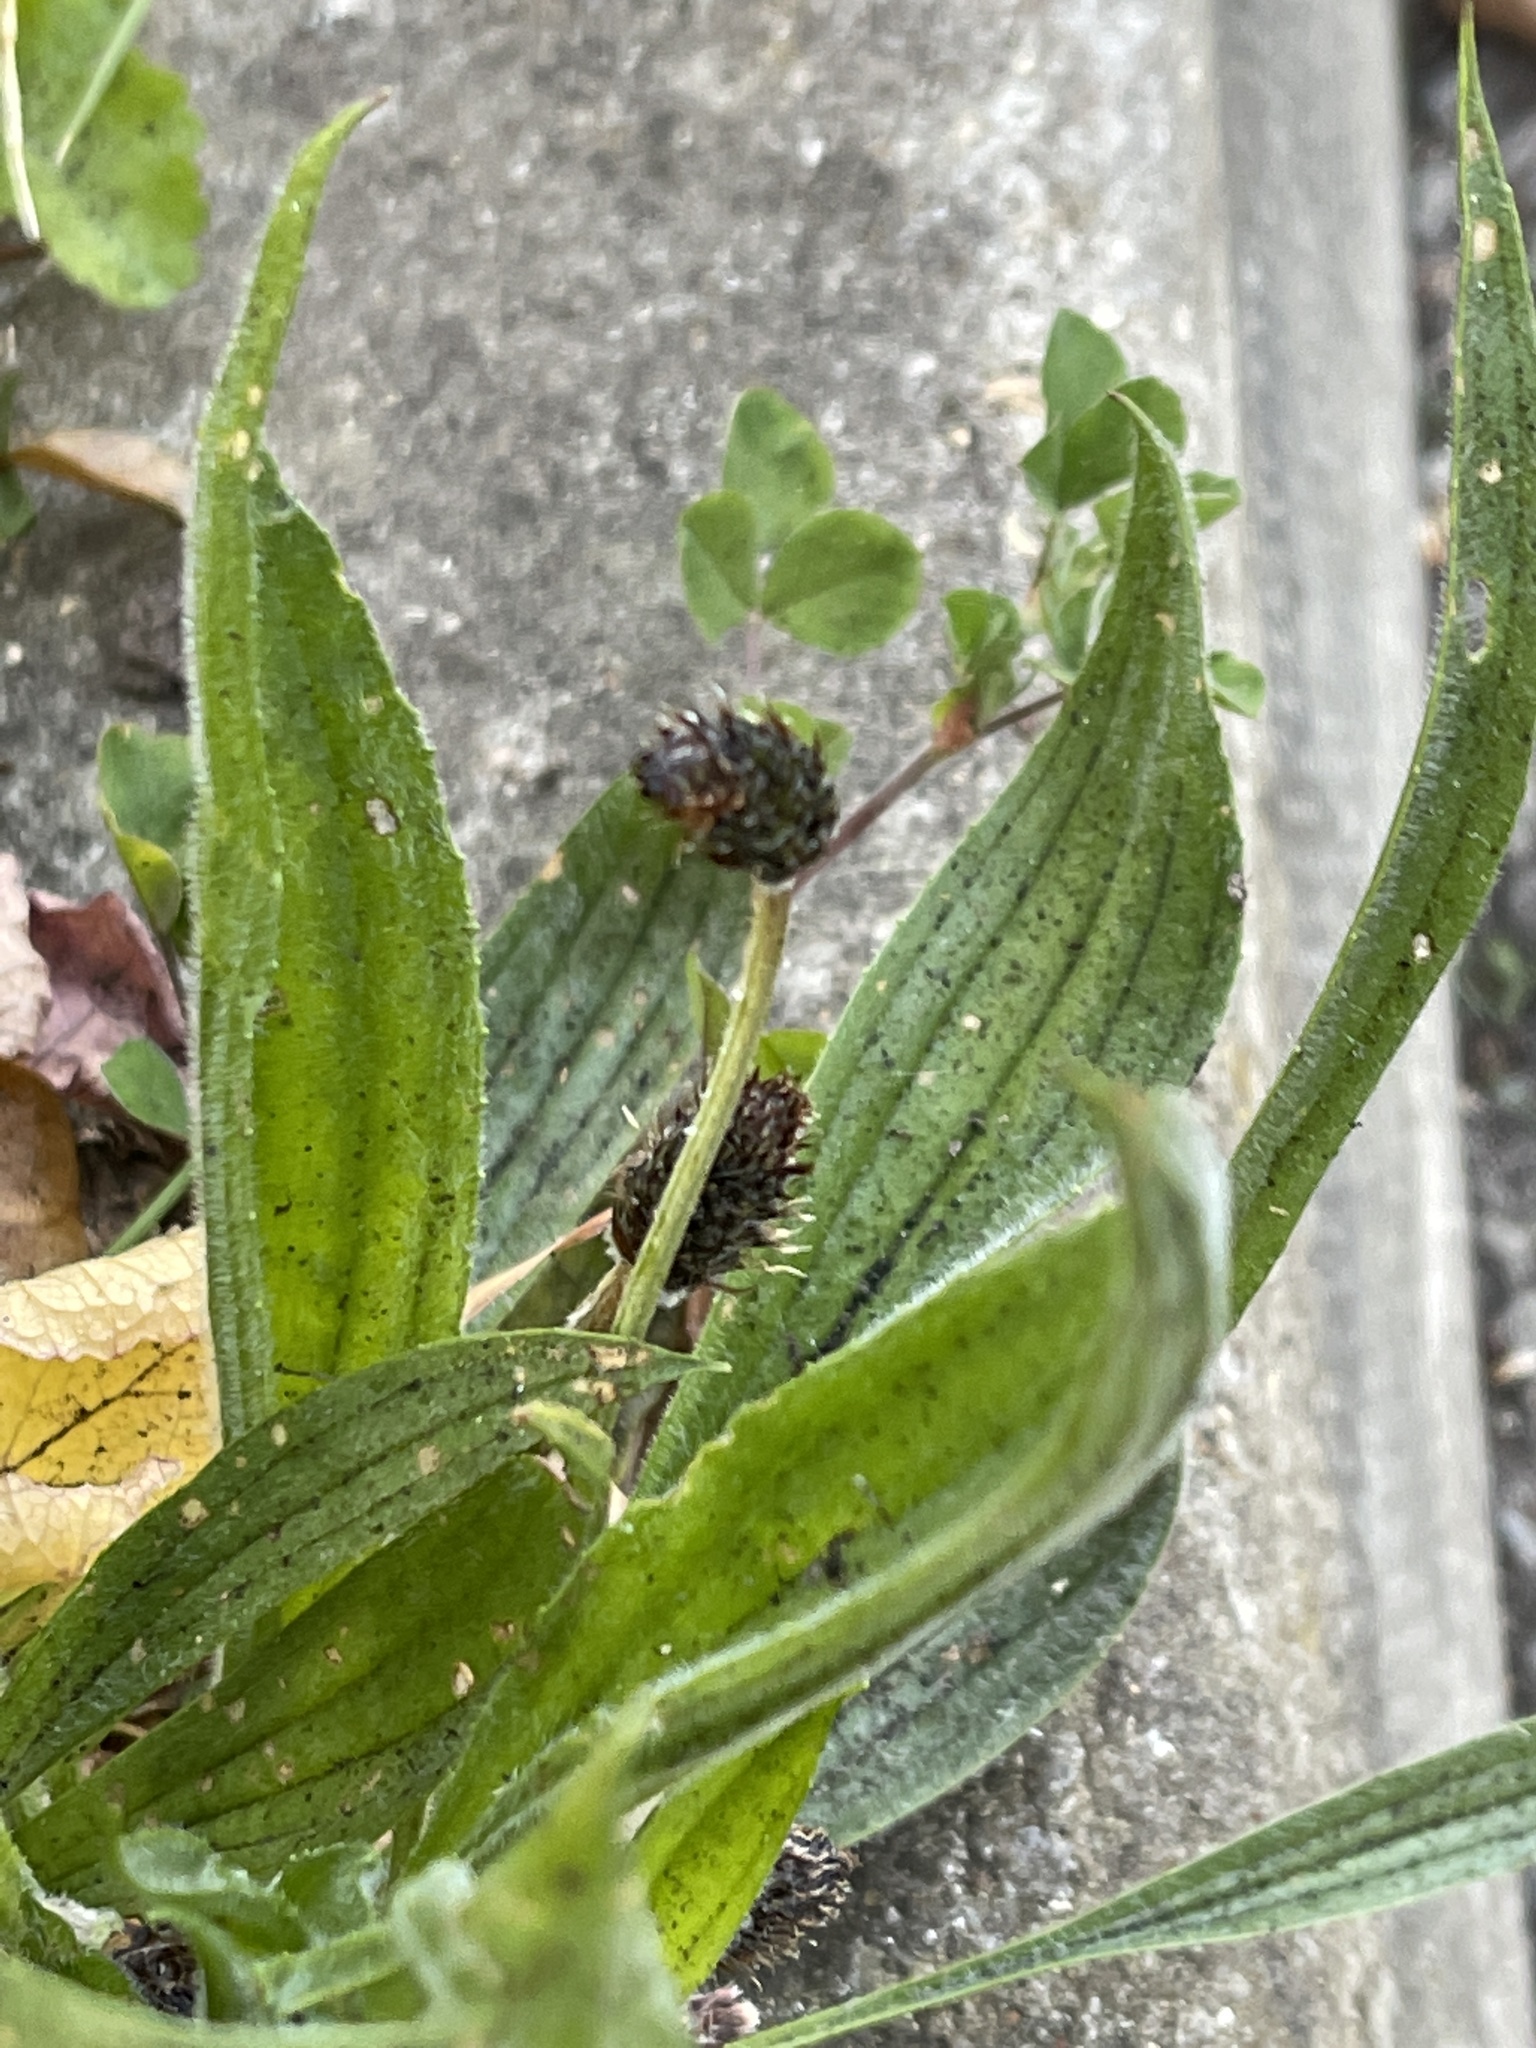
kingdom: Plantae
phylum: Tracheophyta
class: Magnoliopsida
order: Lamiales
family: Plantaginaceae
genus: Plantago
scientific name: Plantago lanceolata
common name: Ribwort plantain
